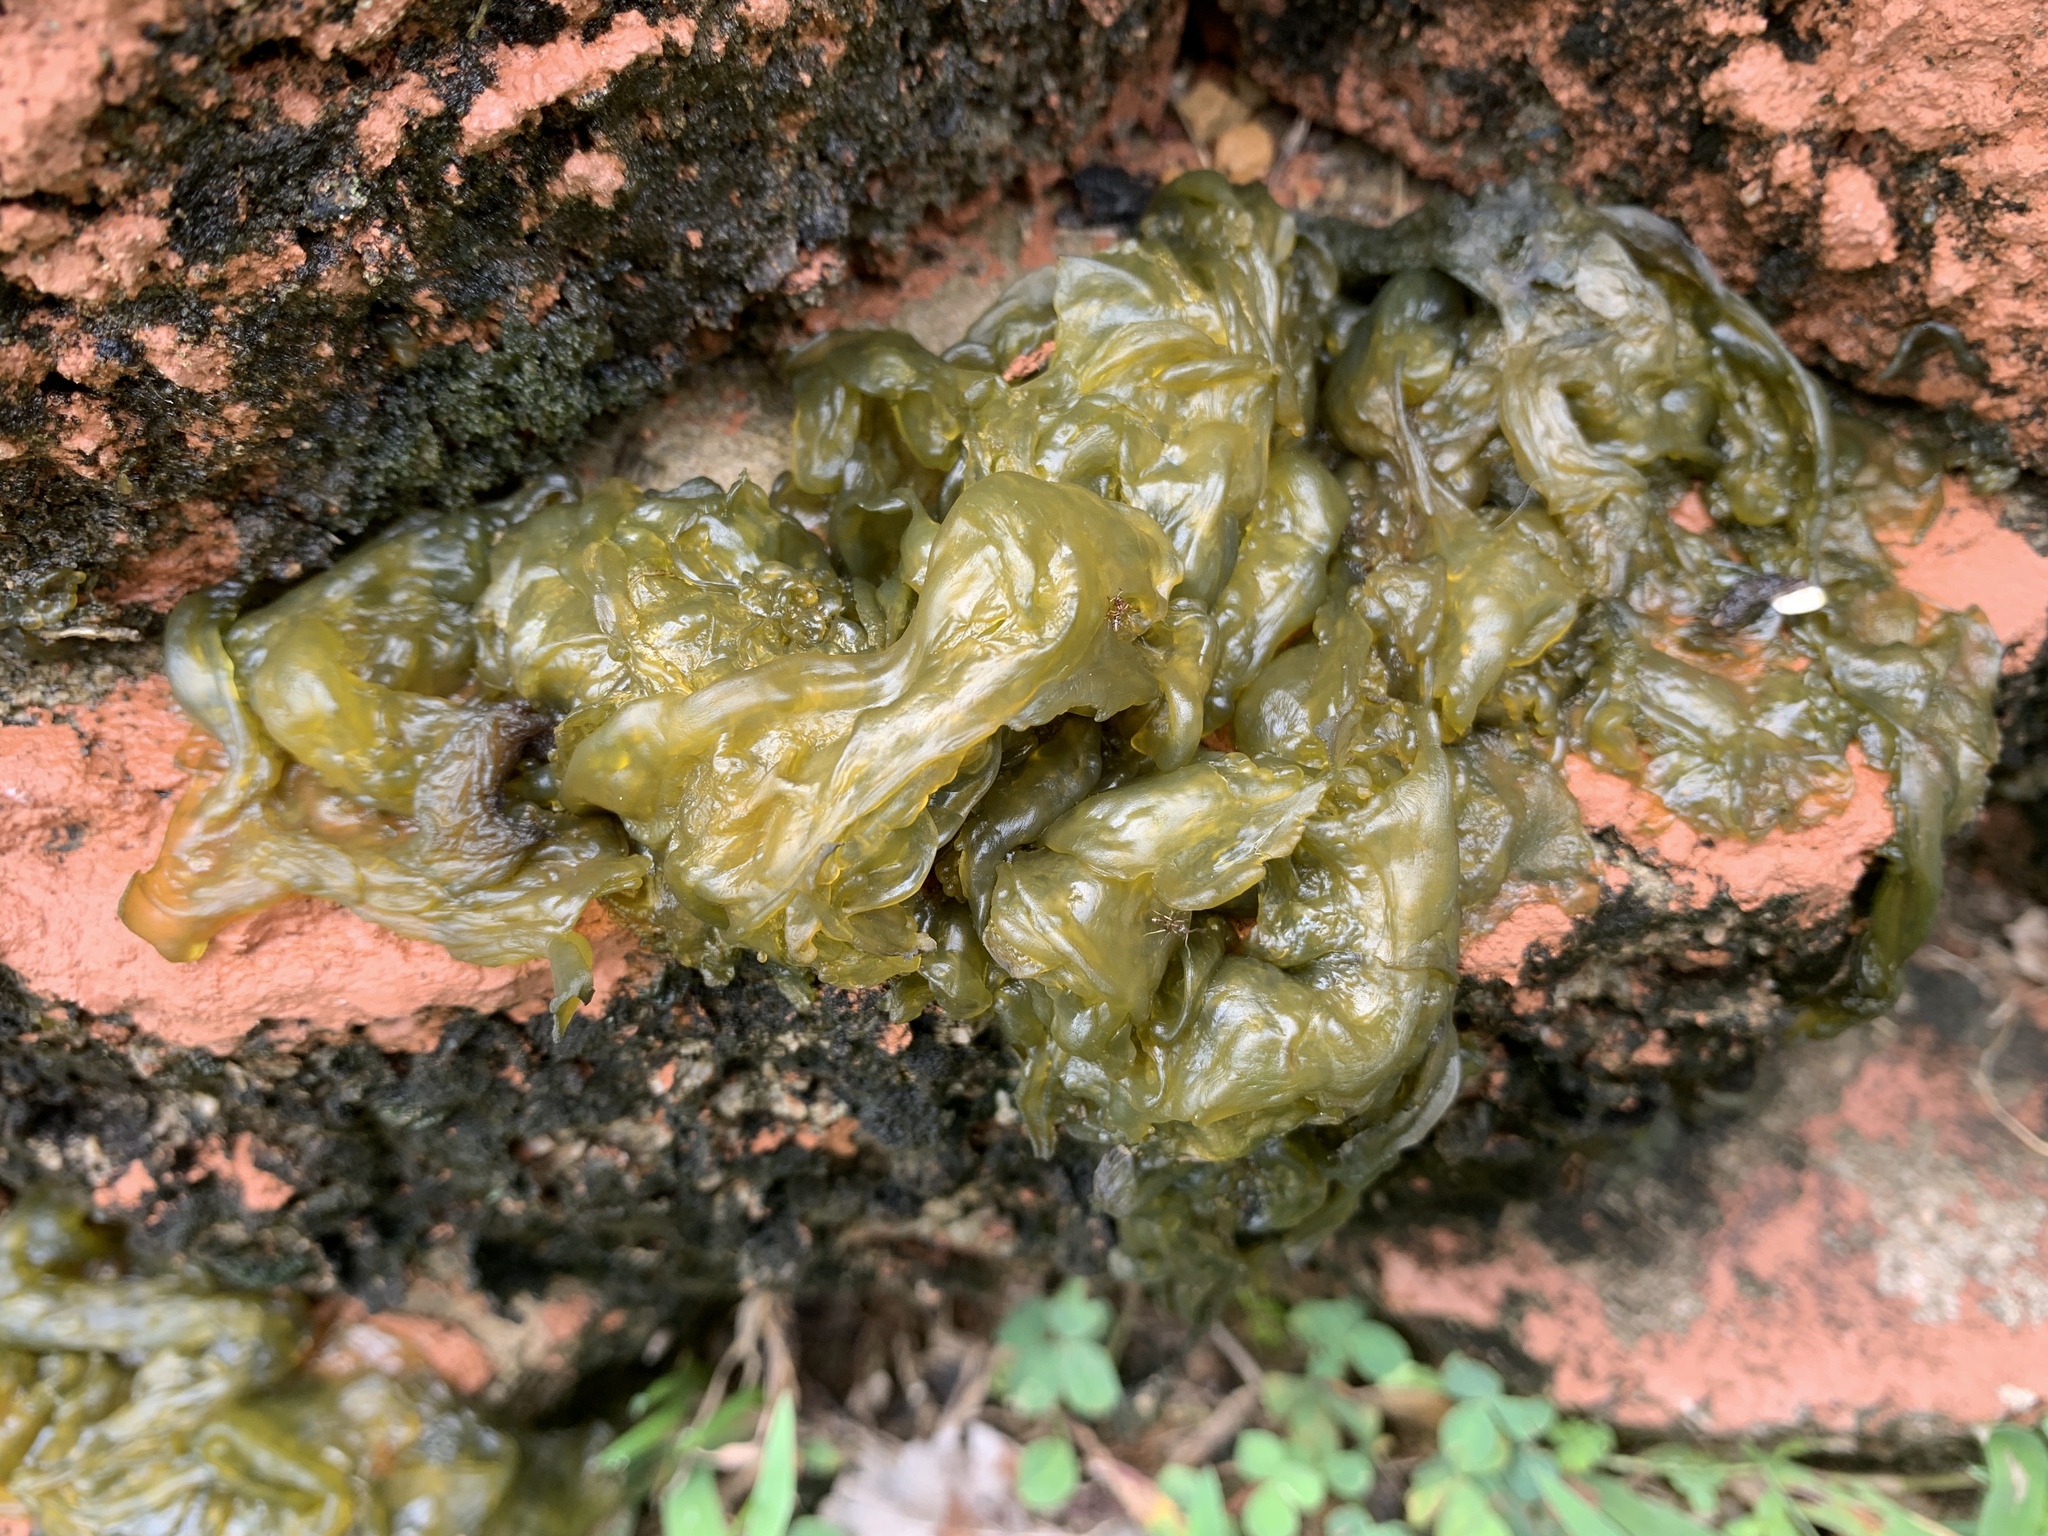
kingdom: Bacteria
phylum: Cyanobacteria
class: Cyanobacteriia
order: Cyanobacteriales
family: Nostocaceae
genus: Nostoc
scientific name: Nostoc commune
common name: Star jelly
